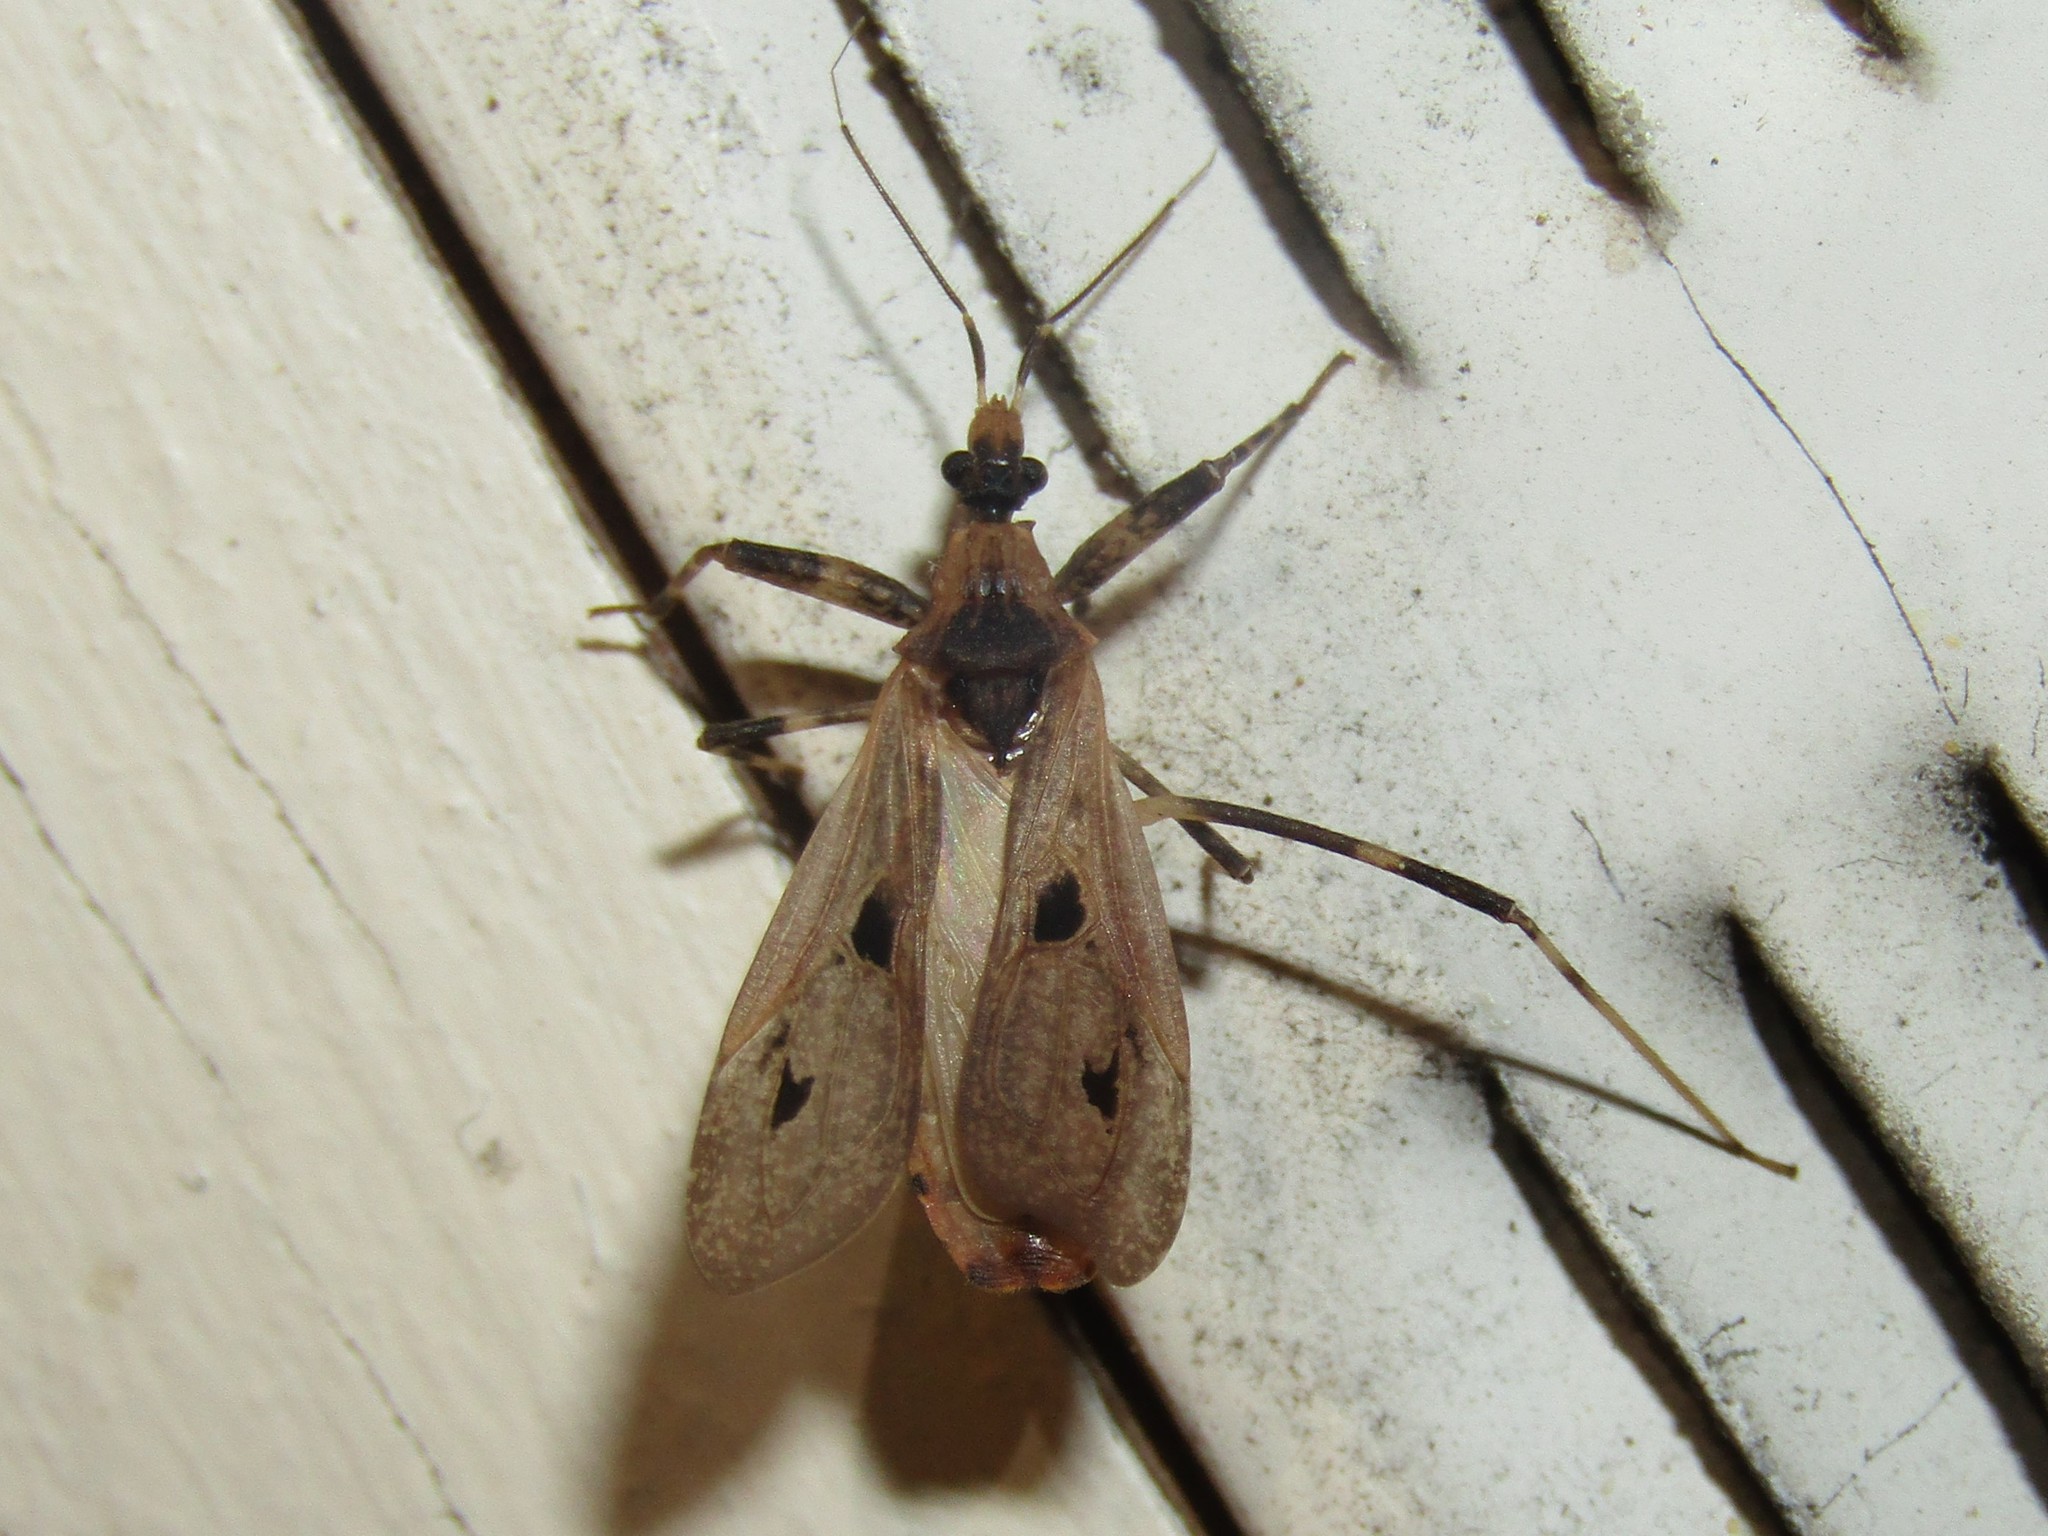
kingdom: Animalia
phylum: Arthropoda
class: Insecta
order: Hemiptera
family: Reduviidae
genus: Oncocephalus
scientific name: Oncocephalus geniculatus
